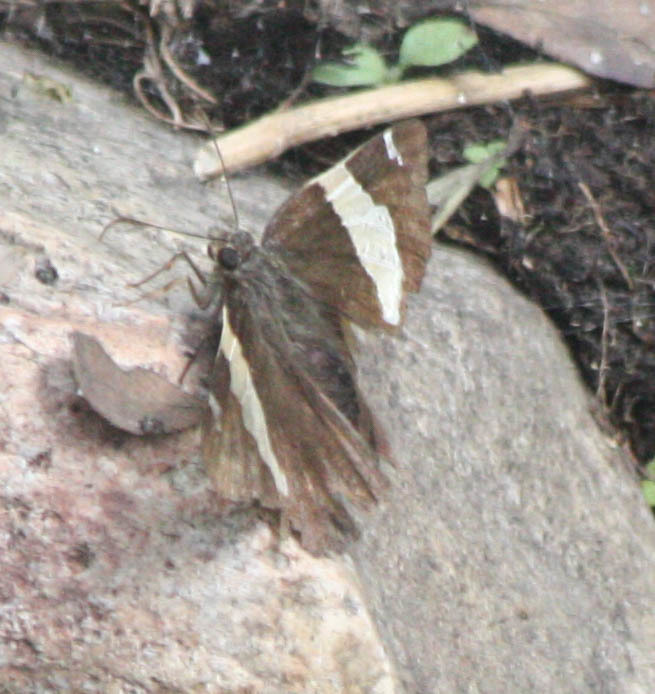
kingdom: Animalia
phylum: Arthropoda
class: Arachnida
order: Scorpiones
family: Bothriuridae
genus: Telegonus
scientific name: Telegonus cellus
